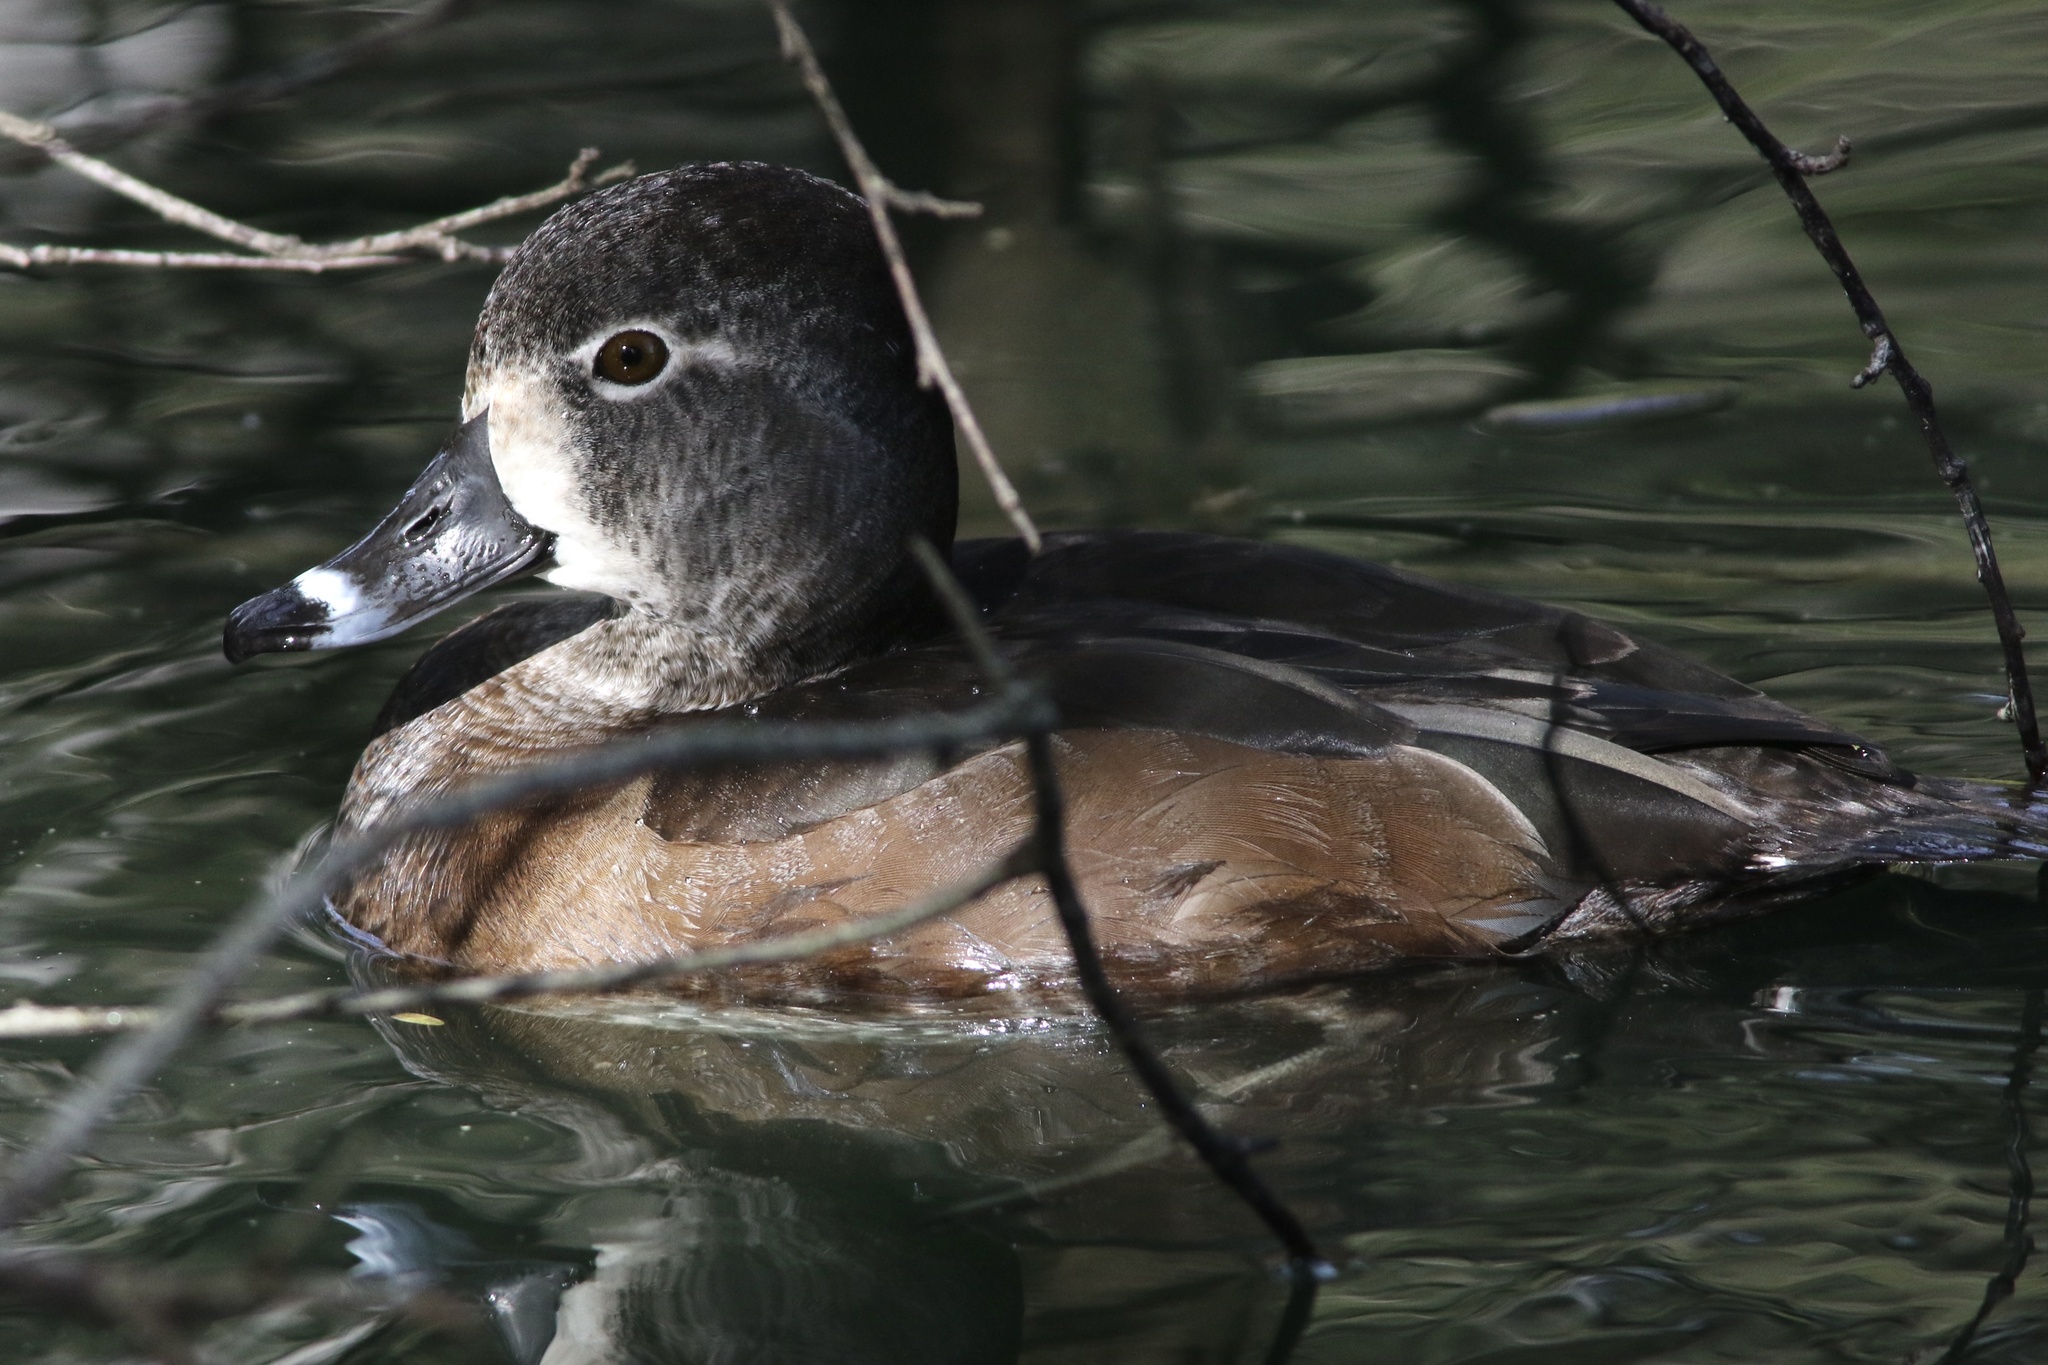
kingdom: Animalia
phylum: Chordata
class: Aves
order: Anseriformes
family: Anatidae
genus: Aythya
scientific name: Aythya collaris
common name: Ring-necked duck
